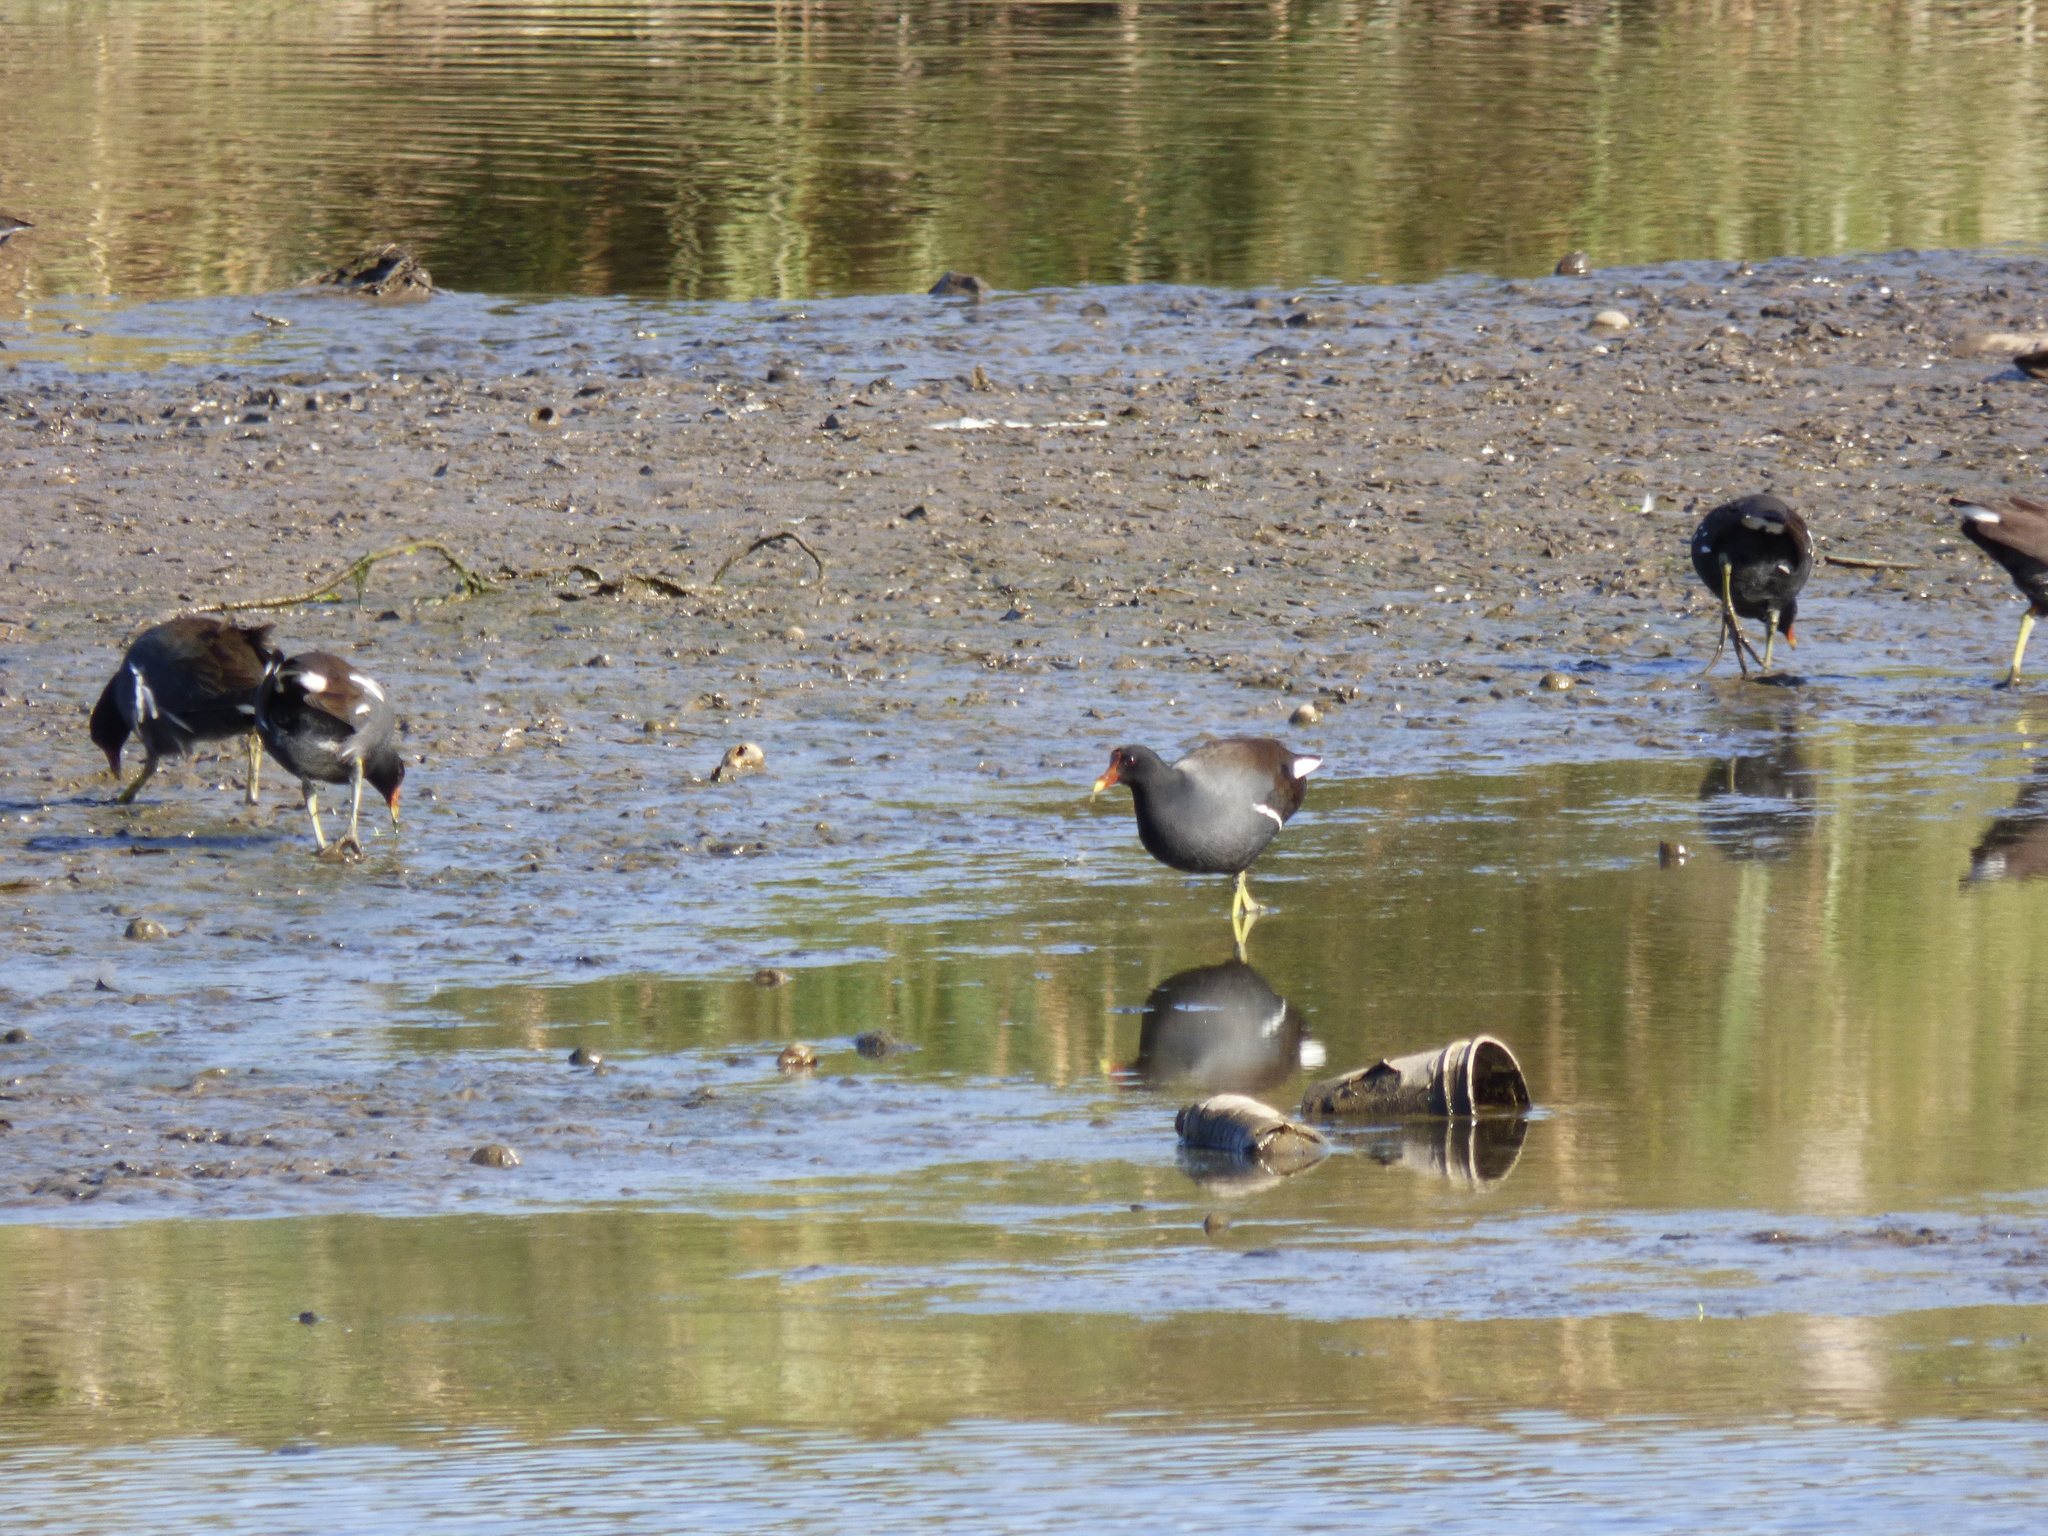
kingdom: Animalia
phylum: Chordata
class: Aves
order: Gruiformes
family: Rallidae
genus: Gallinula
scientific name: Gallinula chloropus
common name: Common moorhen
